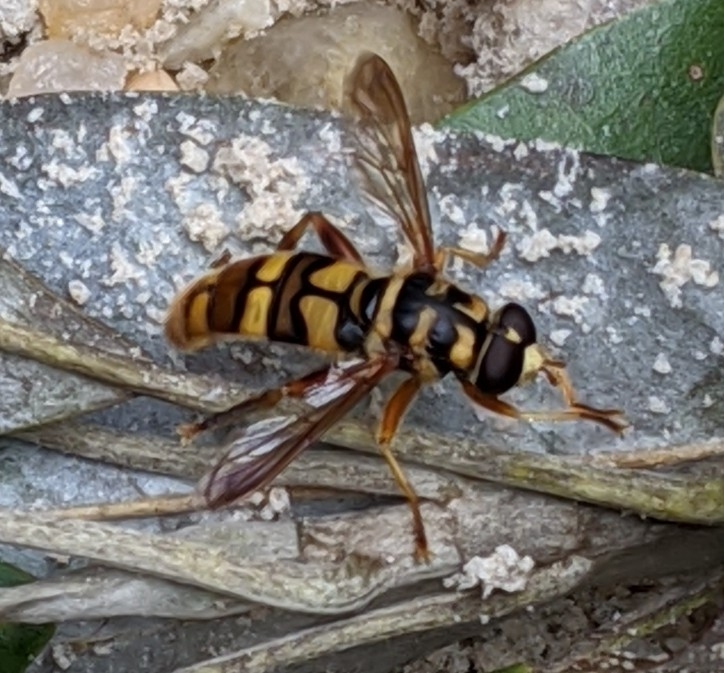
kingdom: Animalia
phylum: Arthropoda
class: Insecta
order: Diptera
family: Syrphidae
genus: Milesia
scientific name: Milesia virginiensis
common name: Virginia giant
